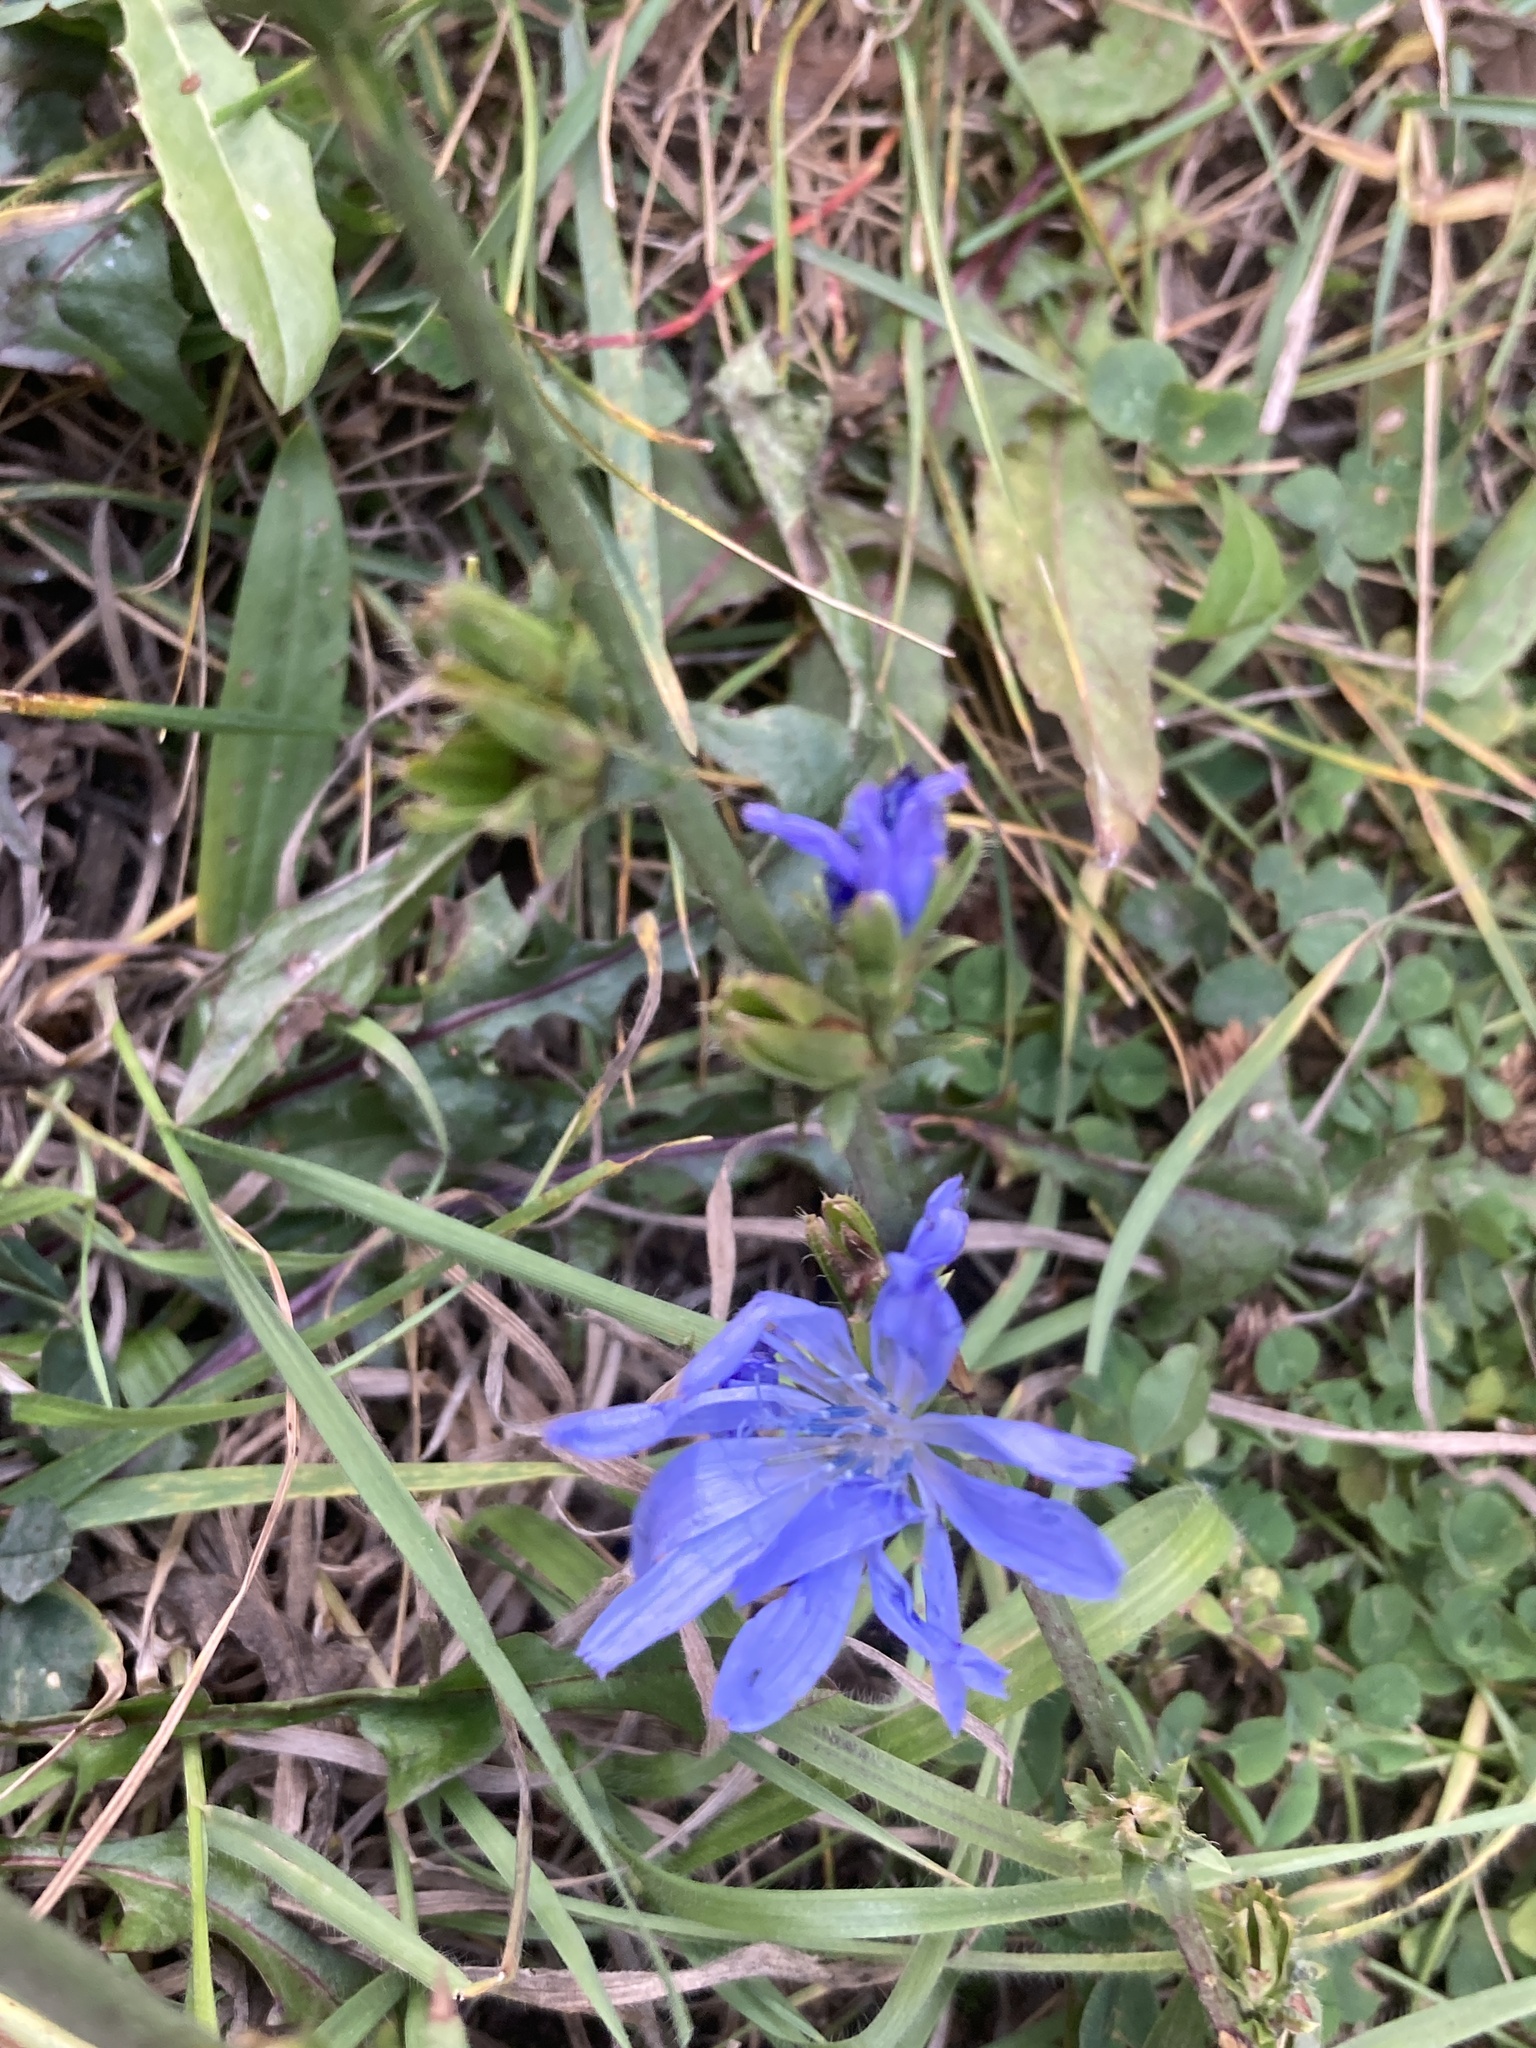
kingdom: Plantae
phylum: Tracheophyta
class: Magnoliopsida
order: Asterales
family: Asteraceae
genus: Cichorium
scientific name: Cichorium intybus
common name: Chicory
